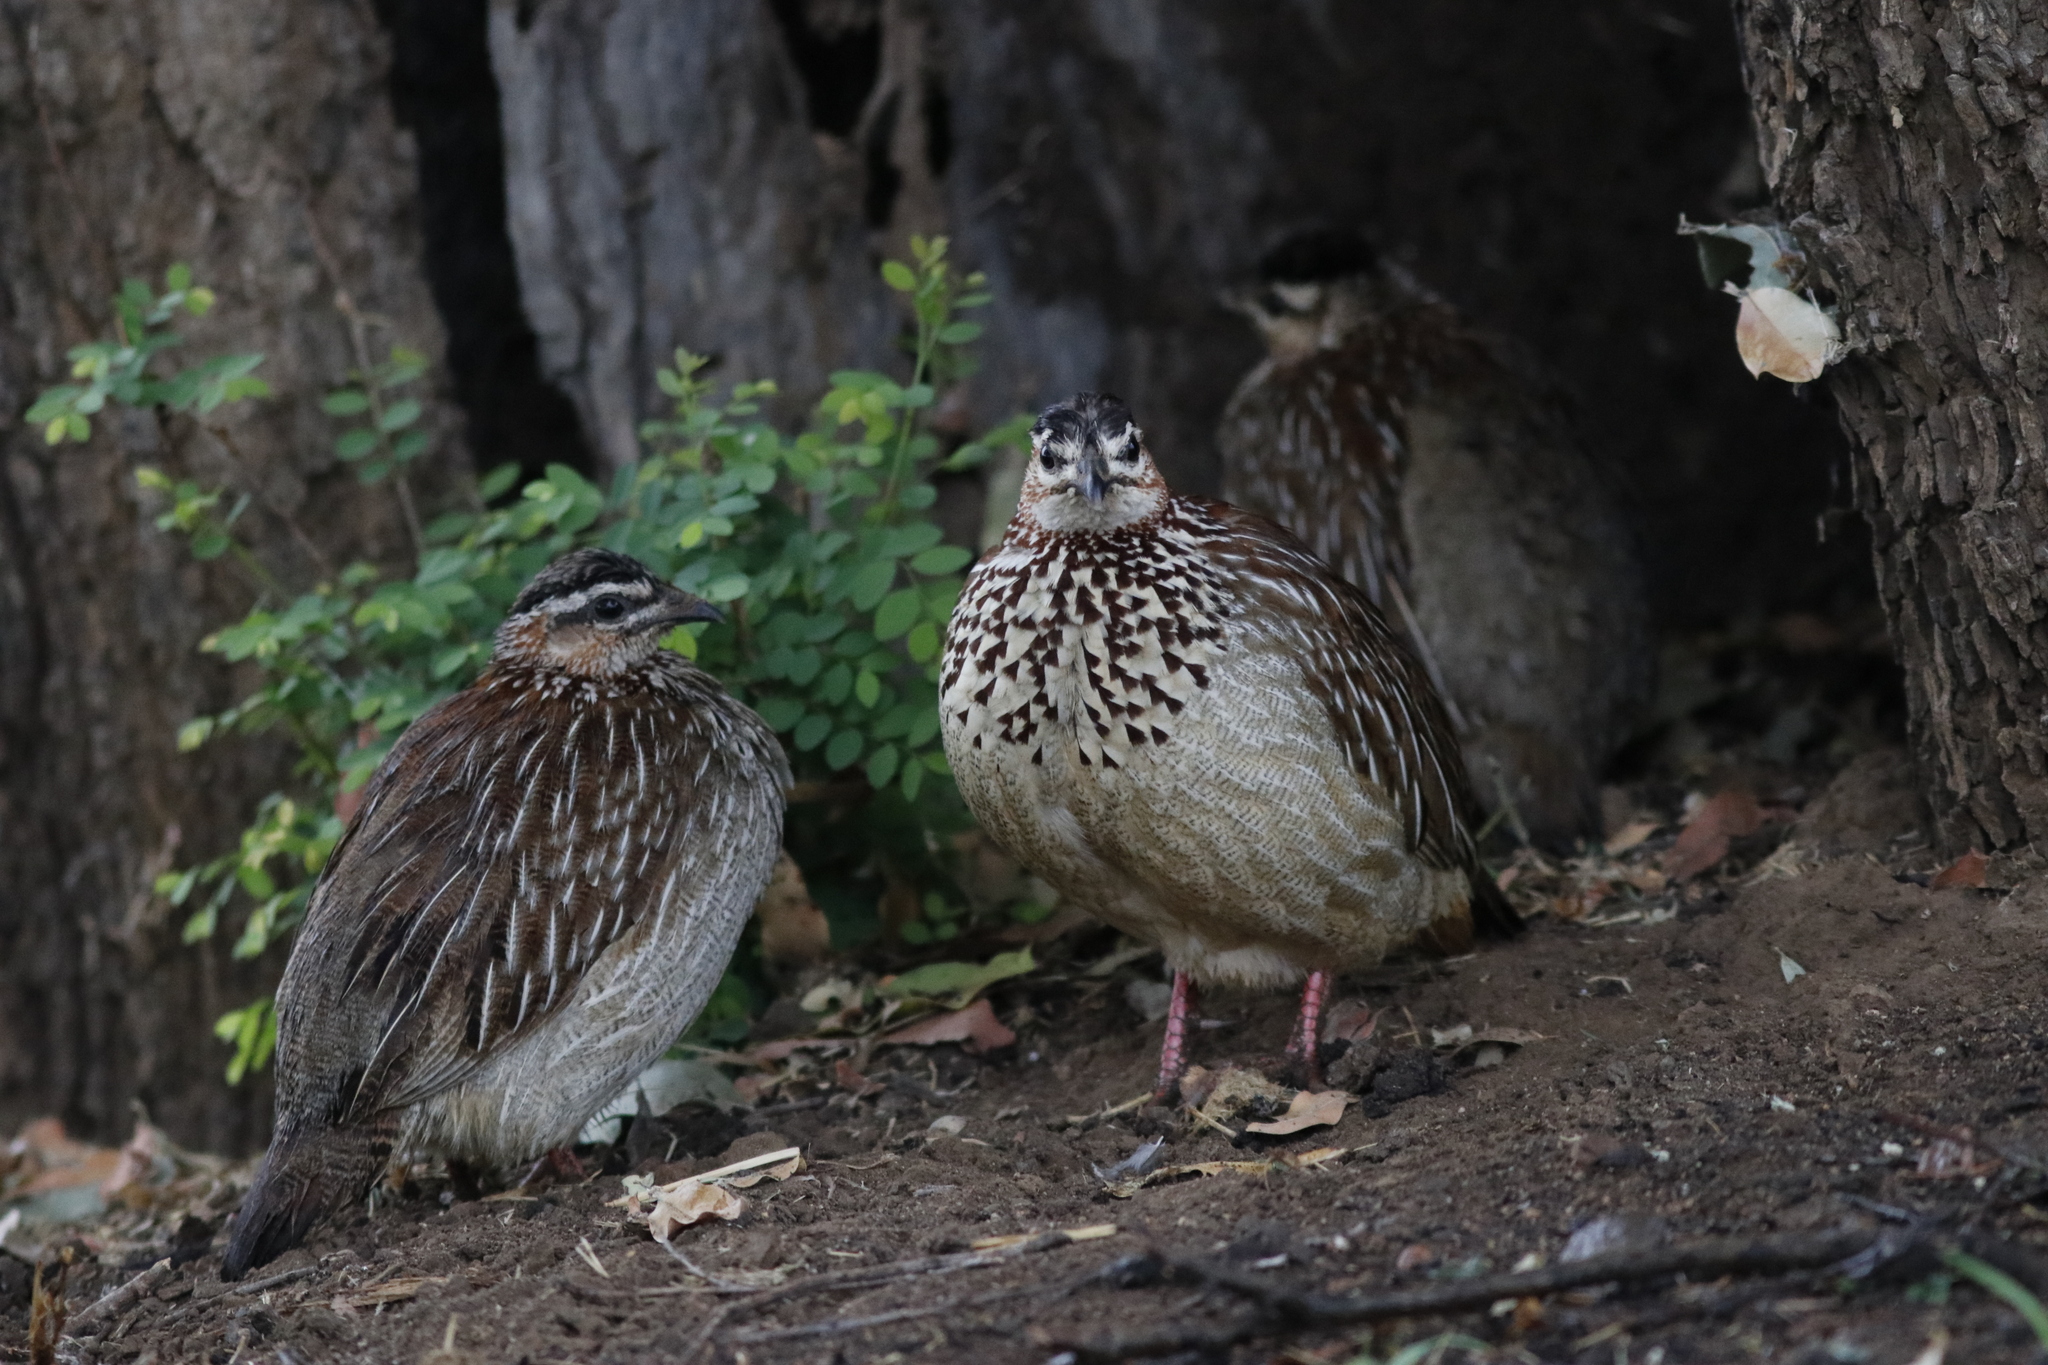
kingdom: Animalia
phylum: Chordata
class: Aves
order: Galliformes
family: Phasianidae
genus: Ortygornis
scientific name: Ortygornis sephaena
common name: Crested francolin
